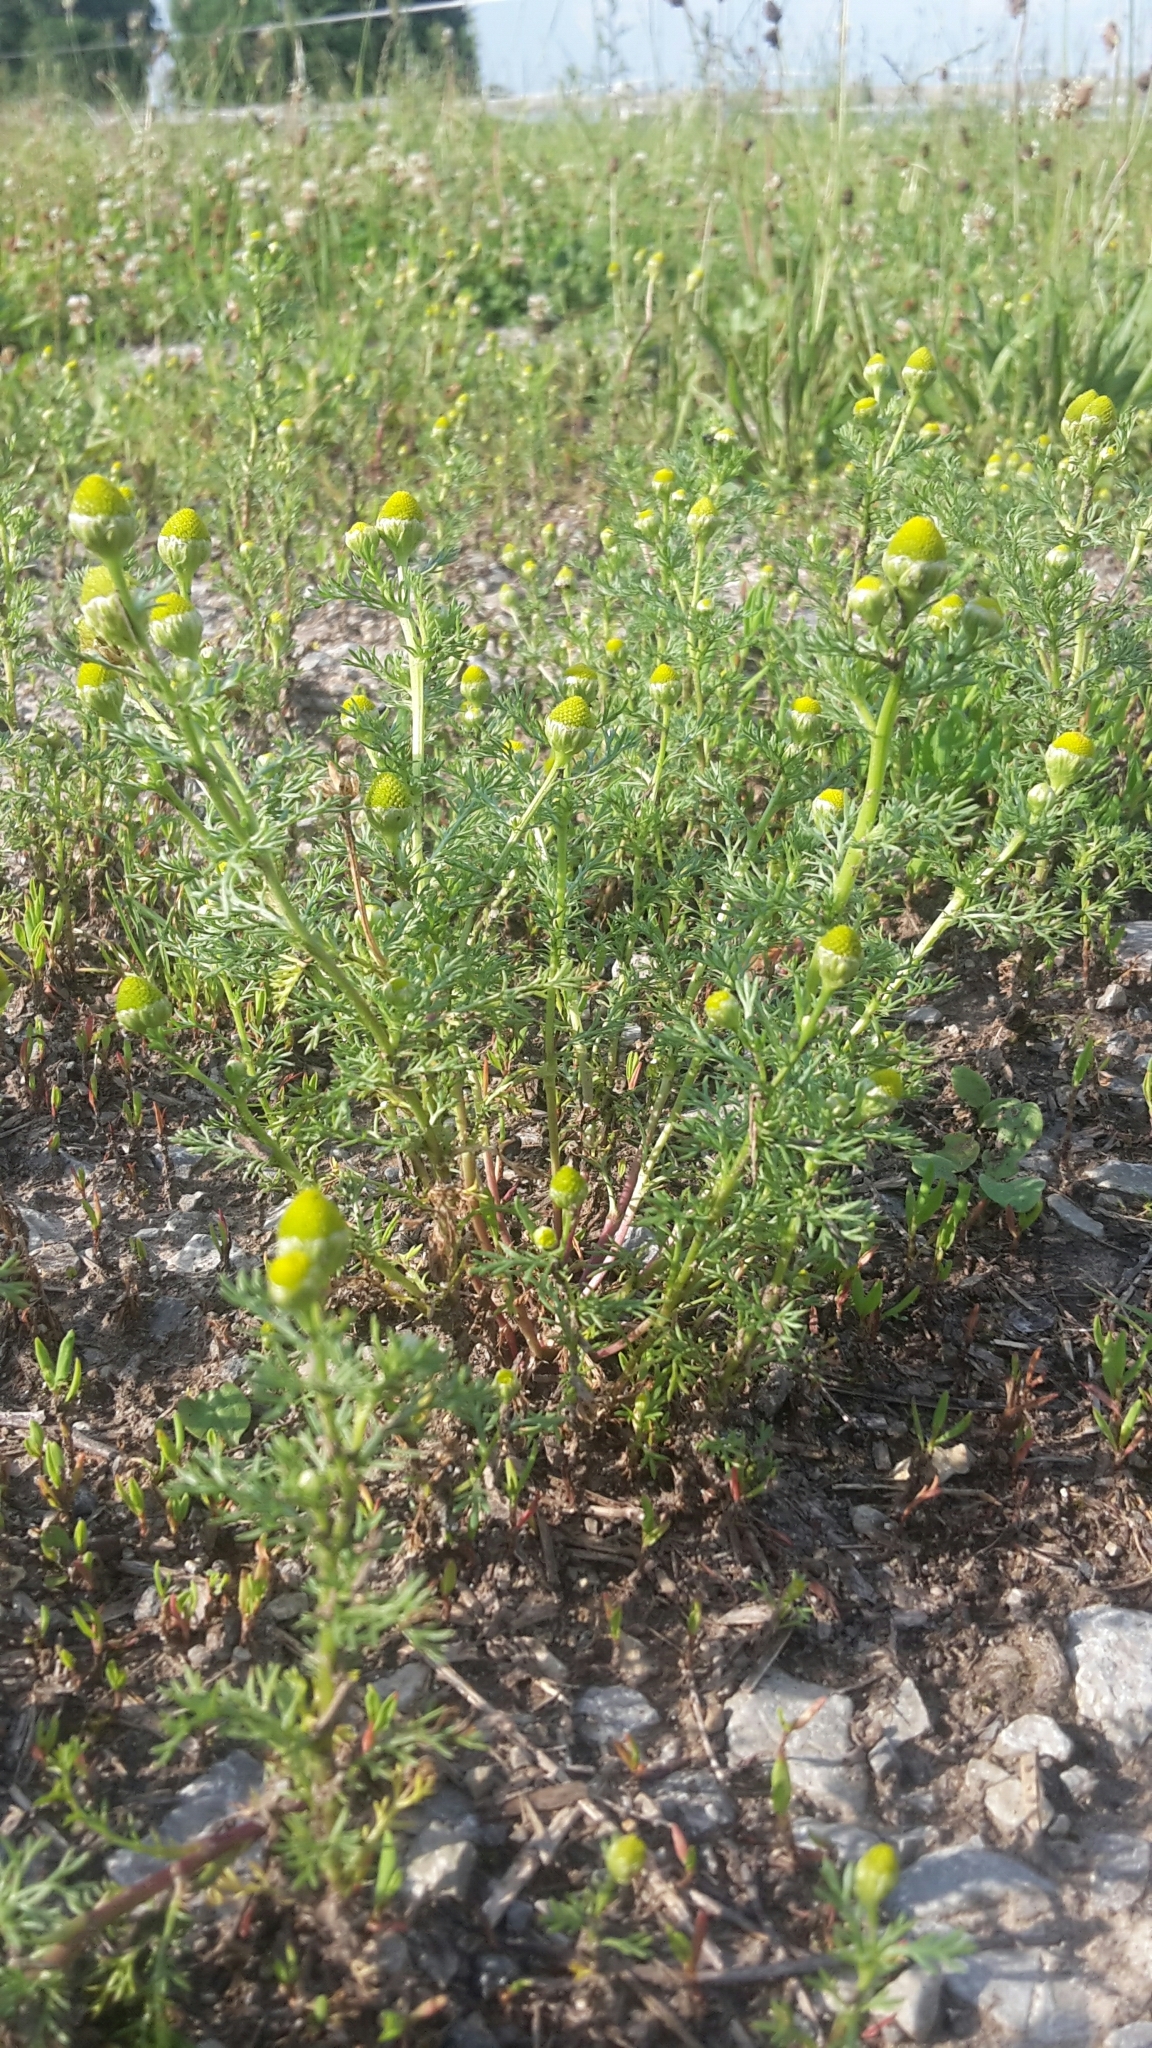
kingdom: Plantae
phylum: Tracheophyta
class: Magnoliopsida
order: Asterales
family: Asteraceae
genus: Matricaria
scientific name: Matricaria discoidea
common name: Disc mayweed
